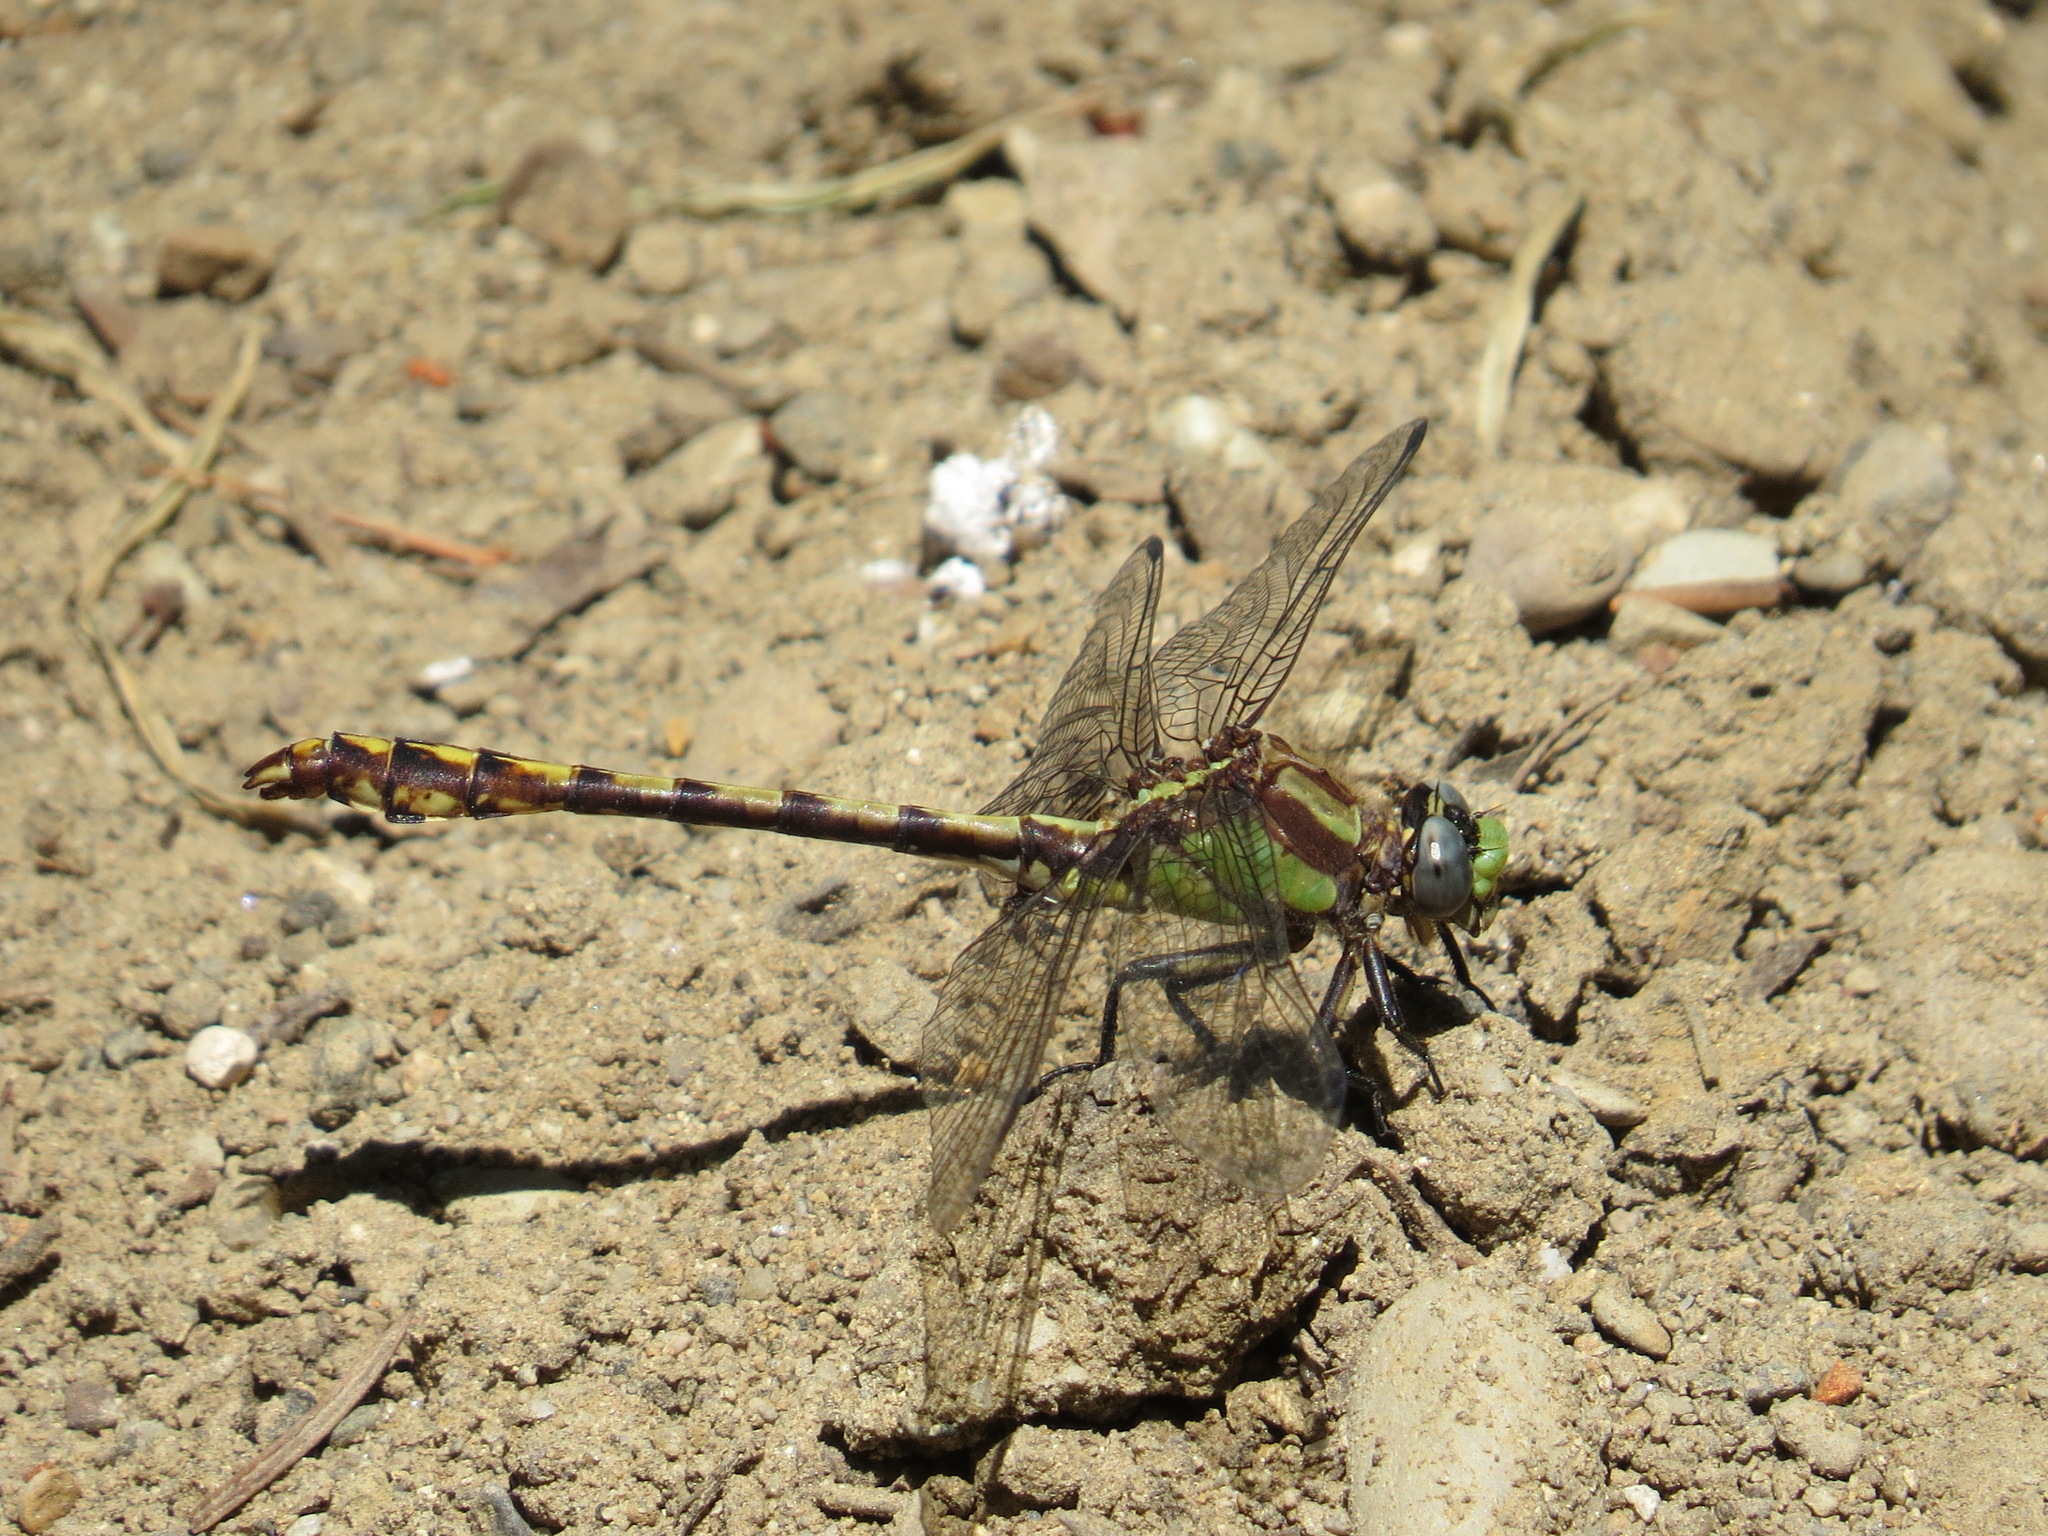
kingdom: Animalia
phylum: Arthropoda
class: Insecta
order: Odonata
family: Gomphidae
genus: Ophiogomphus
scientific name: Ophiogomphus bison
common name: Bison snaketail
